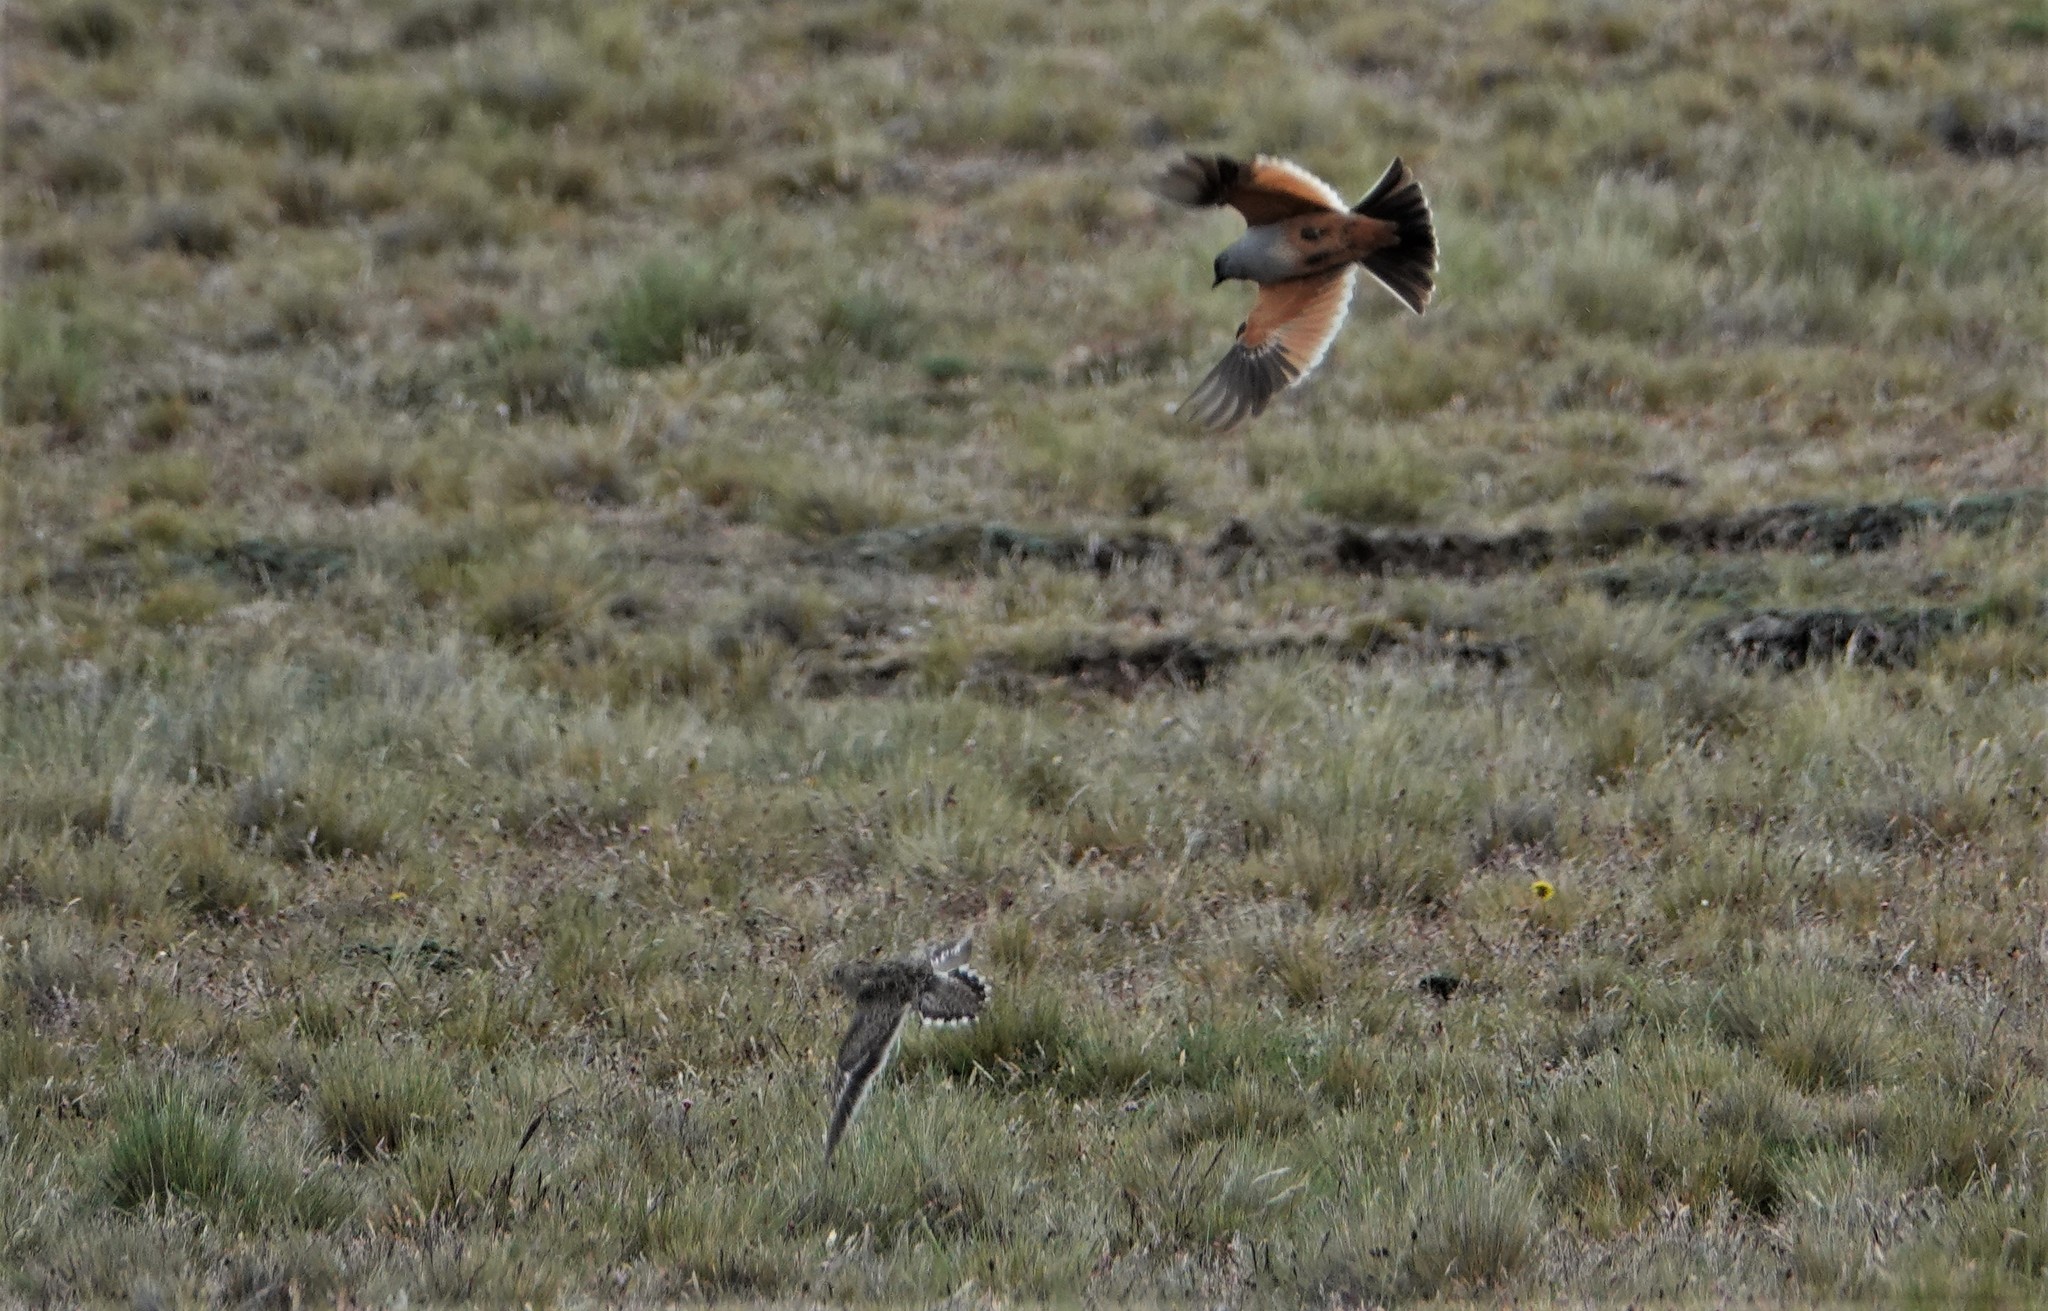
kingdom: Animalia
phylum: Chordata
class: Aves
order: Passeriformes
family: Tyrannidae
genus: Neoxolmis
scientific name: Neoxolmis rufiventris
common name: Chocolate-vented tyrant
